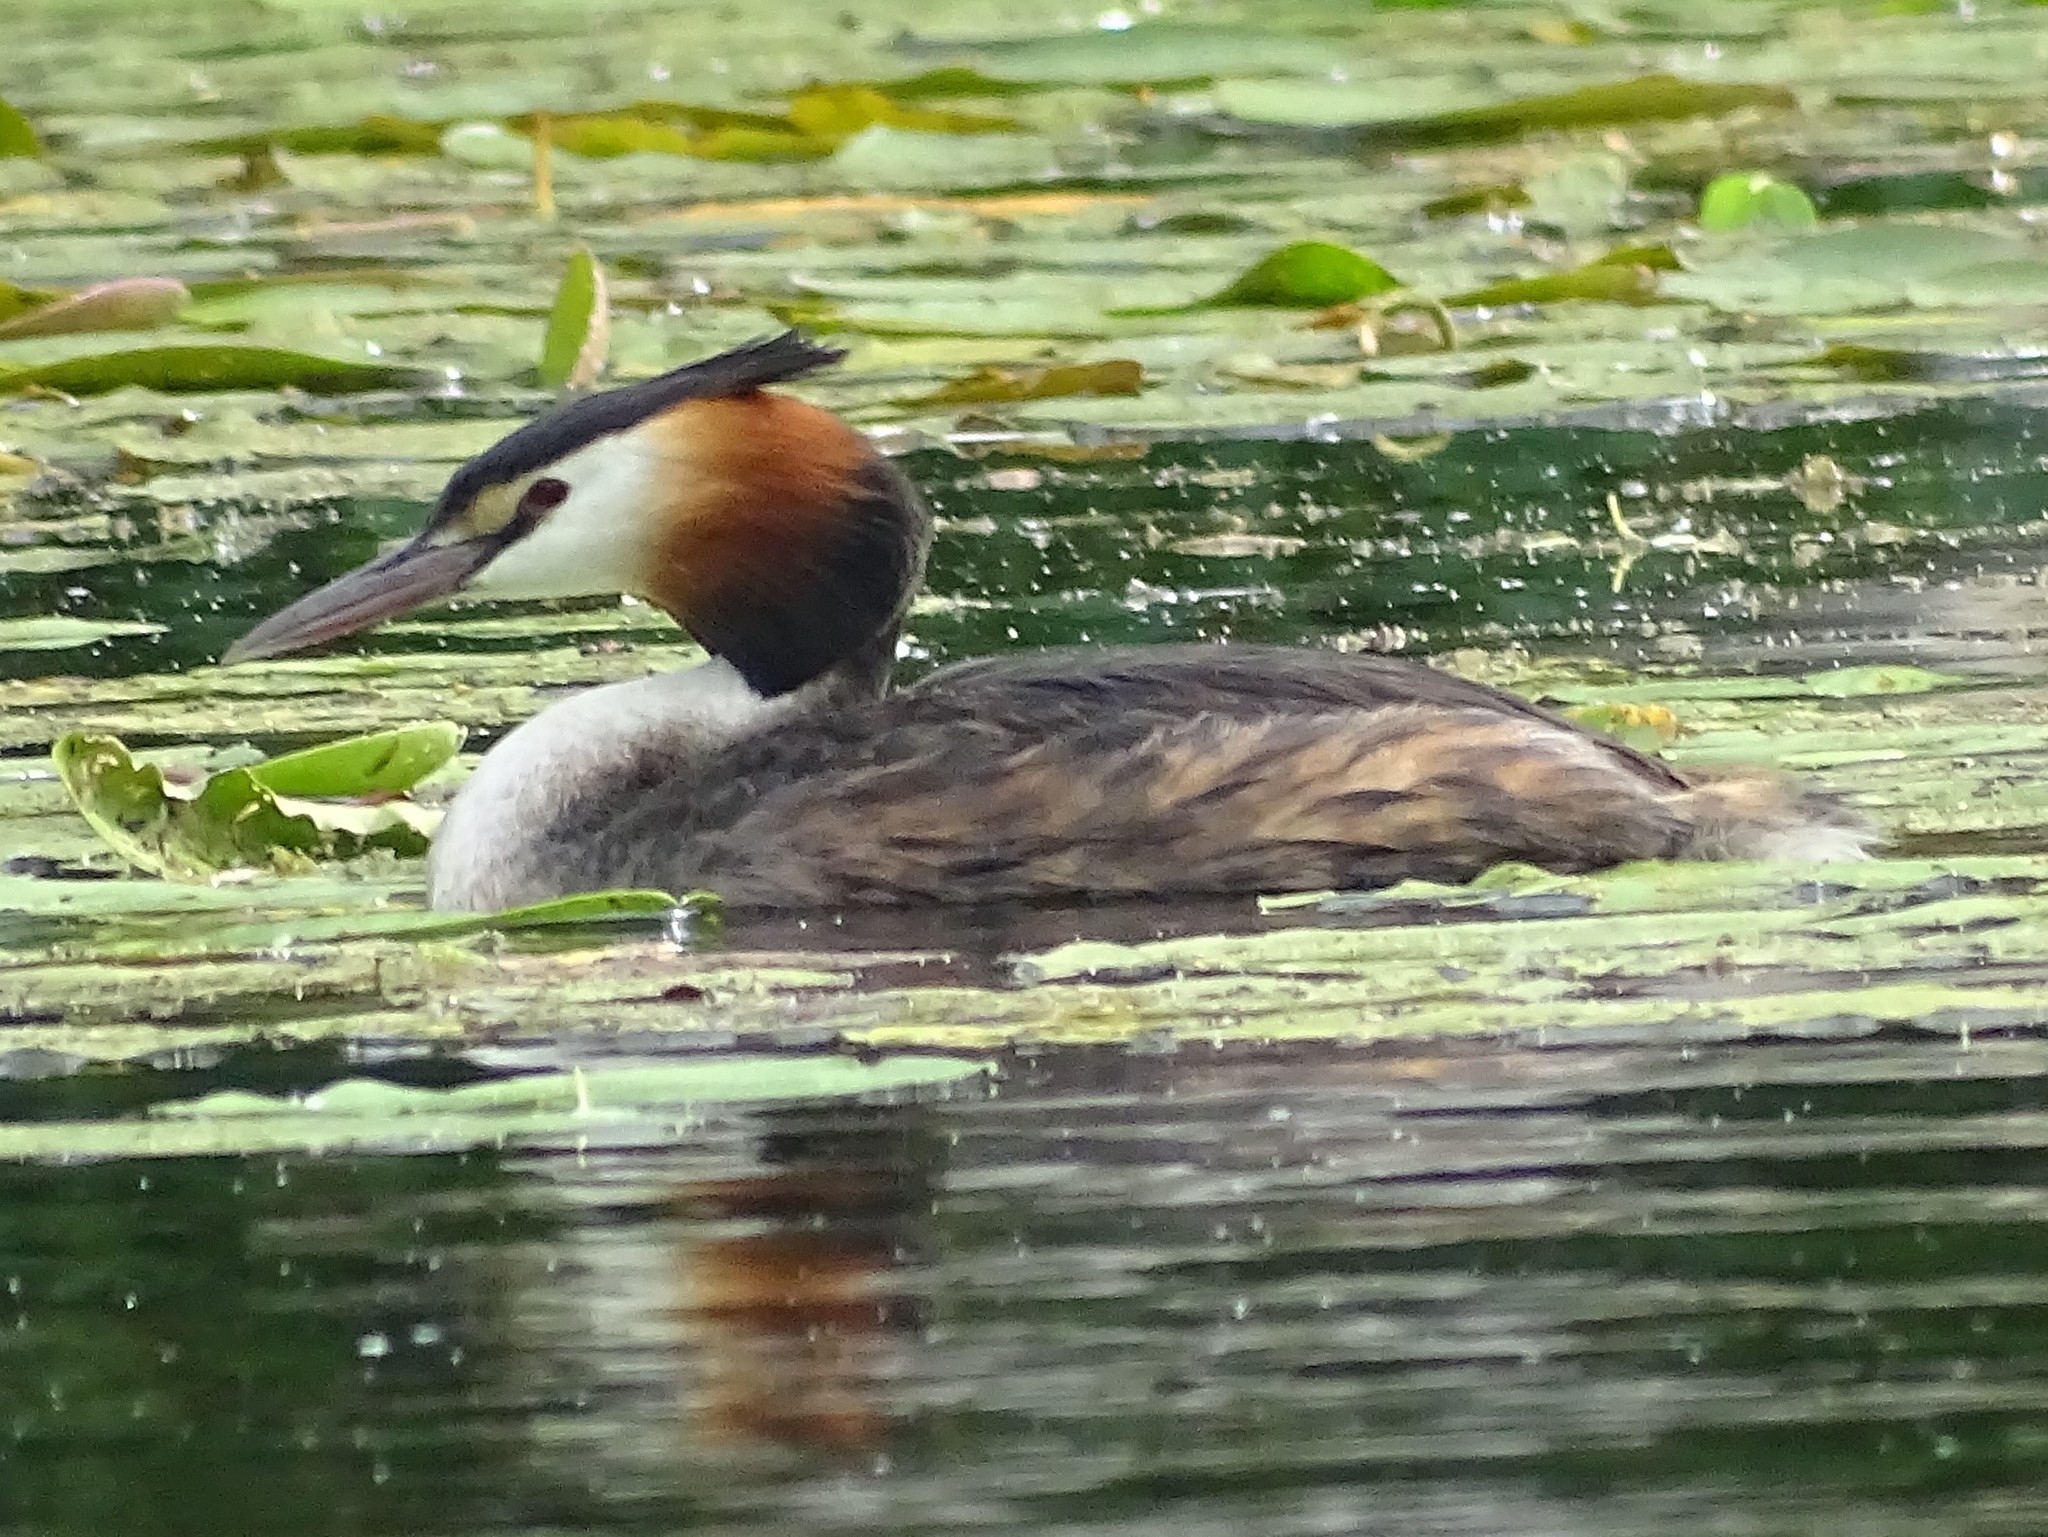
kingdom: Animalia
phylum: Chordata
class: Aves
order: Podicipediformes
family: Podicipedidae
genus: Podiceps
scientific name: Podiceps cristatus
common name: Great crested grebe
